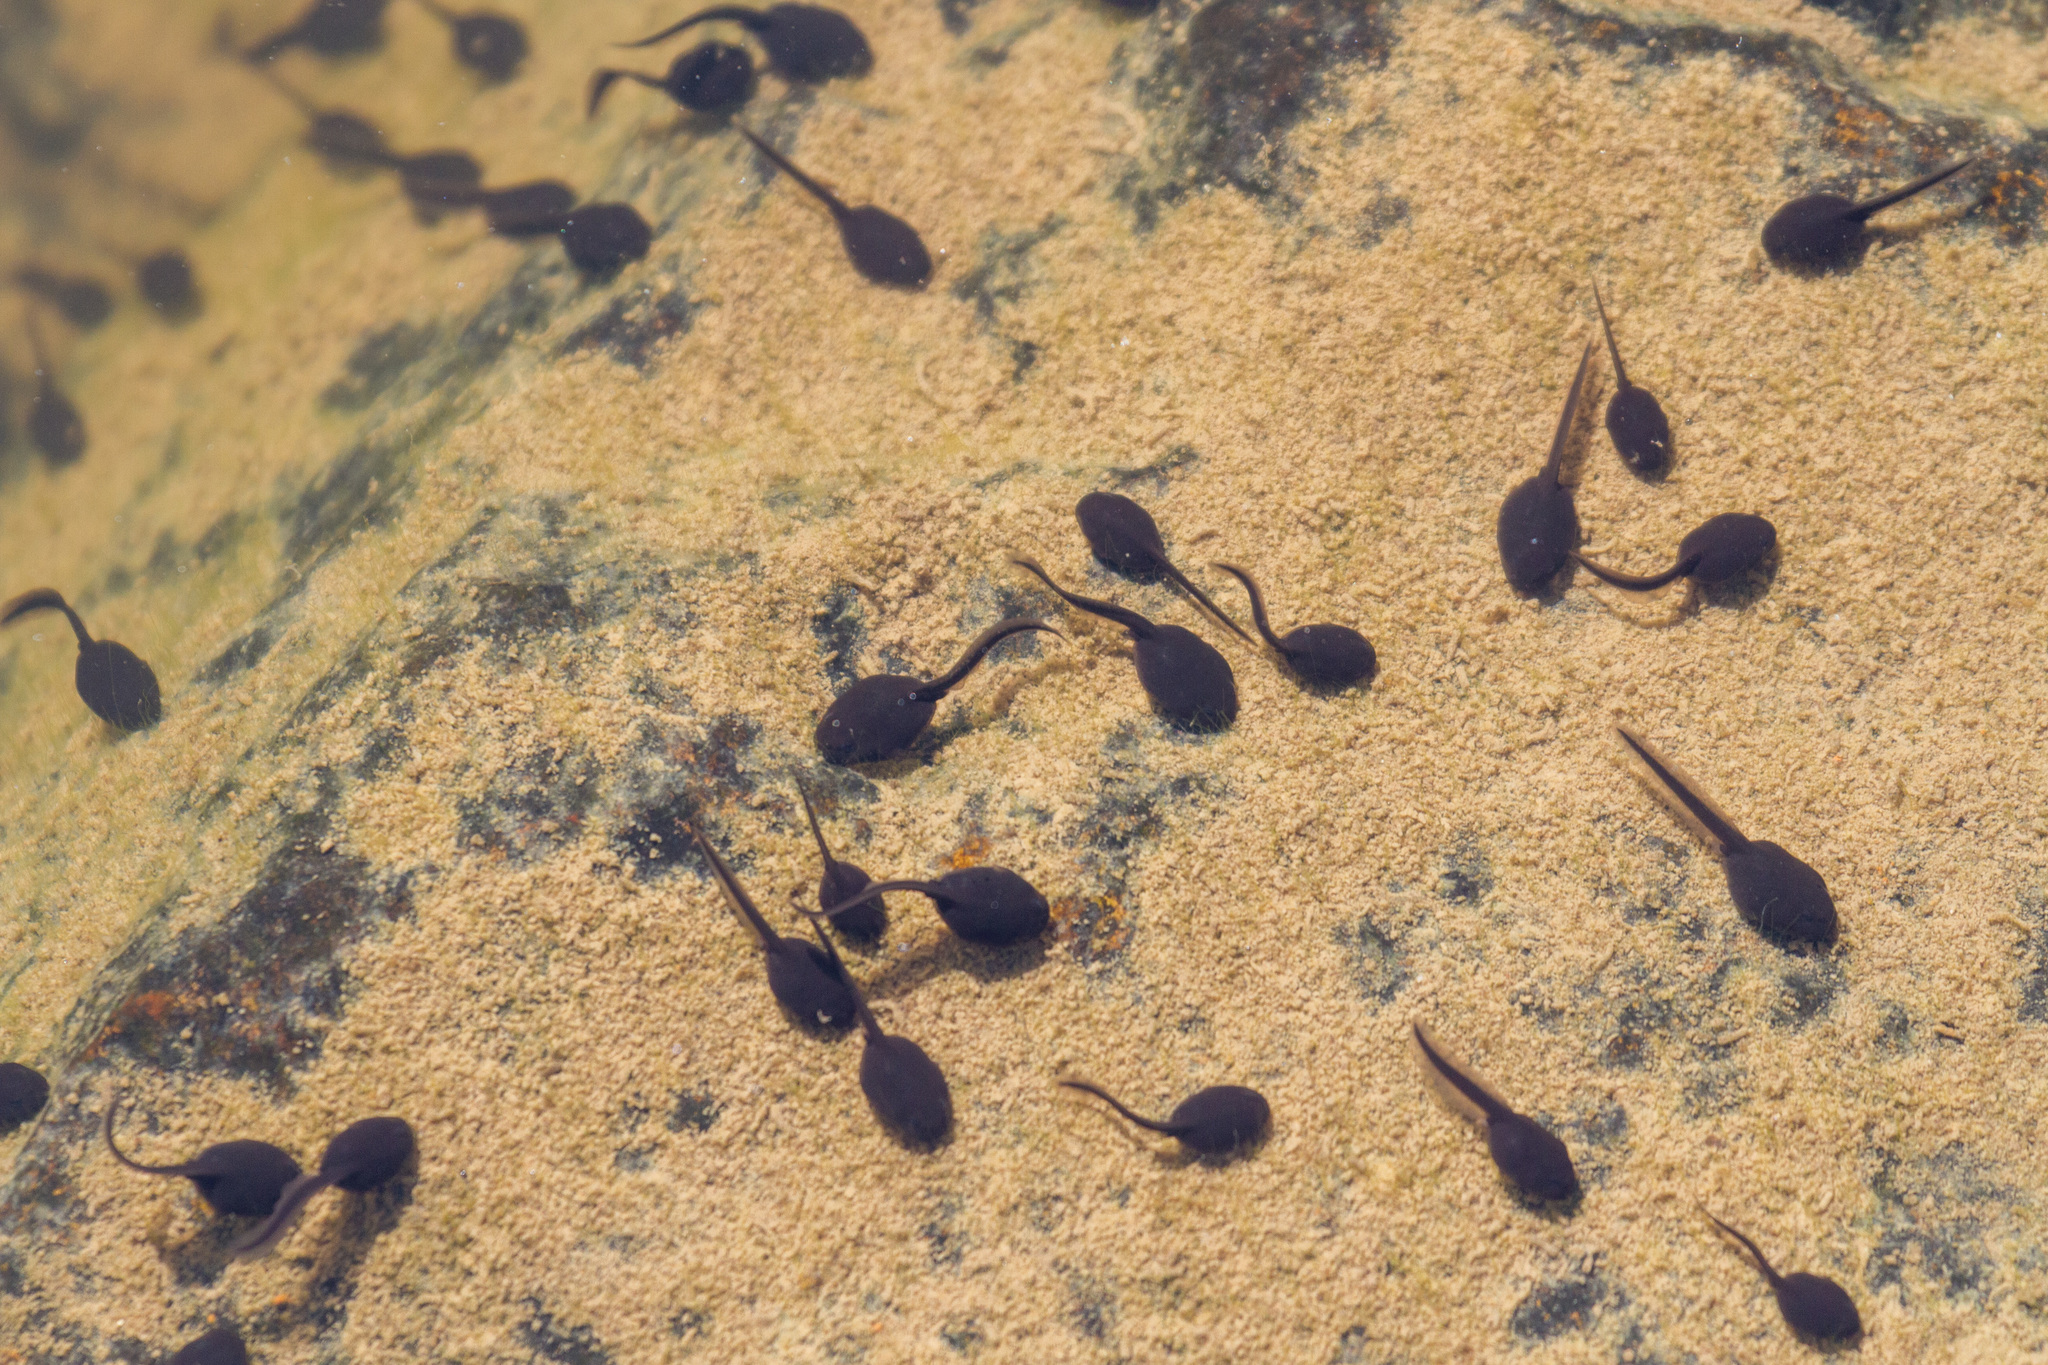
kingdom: Animalia
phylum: Chordata
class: Amphibia
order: Anura
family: Bufonidae
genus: Bufo
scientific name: Bufo bufo
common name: Common toad
